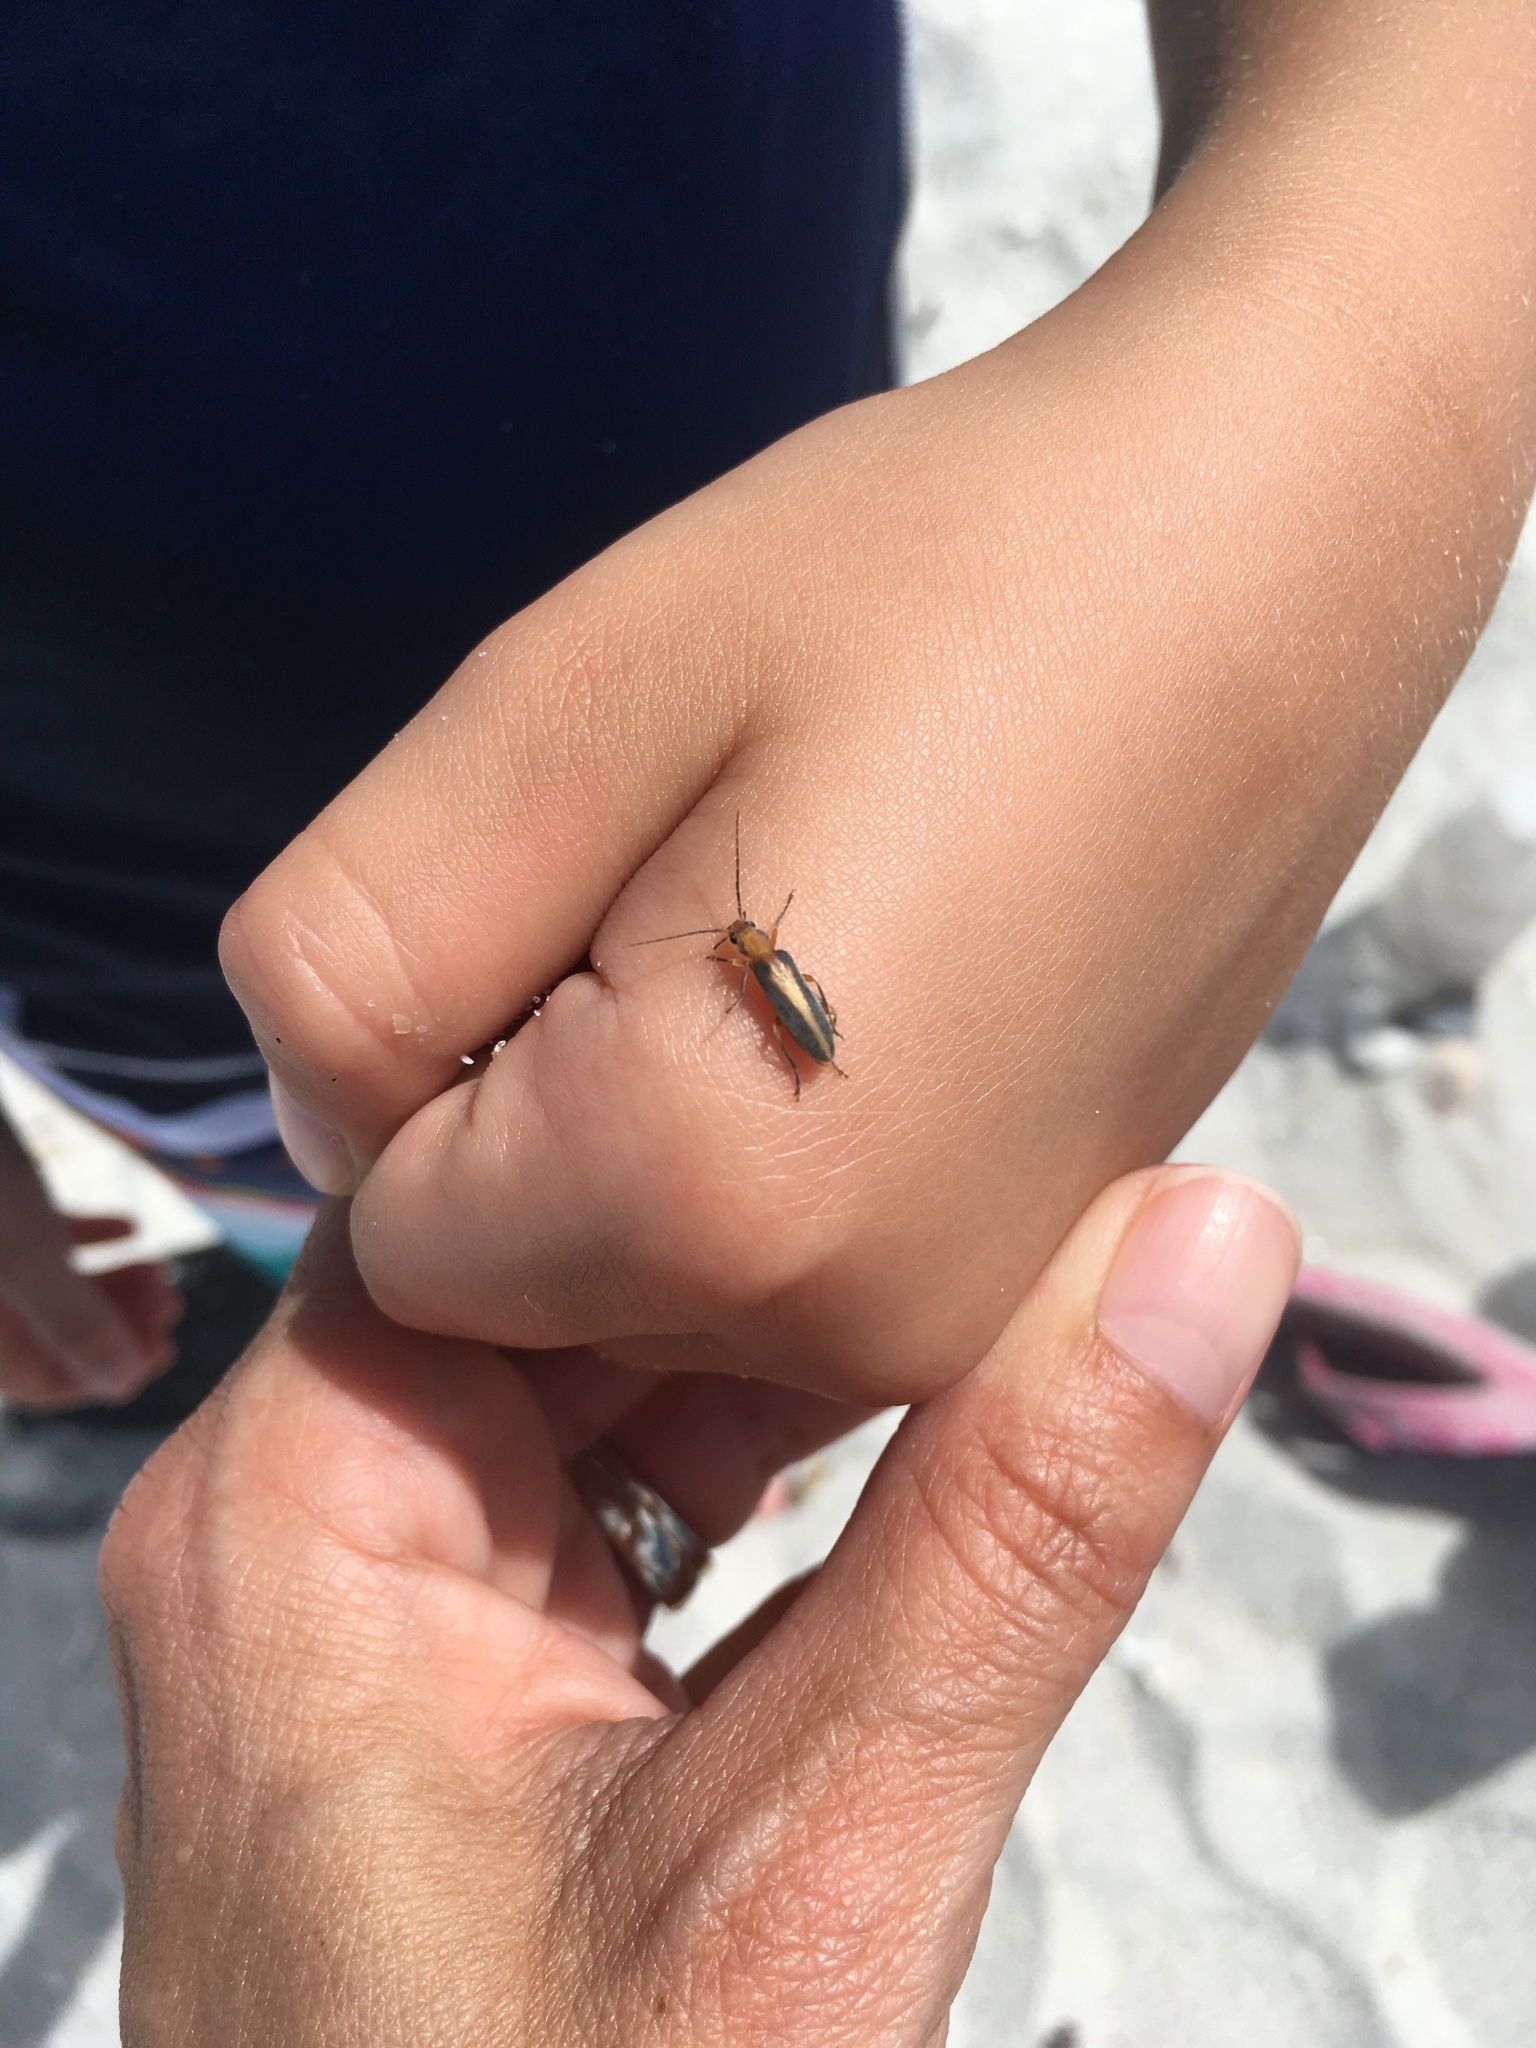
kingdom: Animalia
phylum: Arthropoda
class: Insecta
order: Coleoptera
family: Oedemeridae
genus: Oxycopis
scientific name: Oxycopis suturalis
